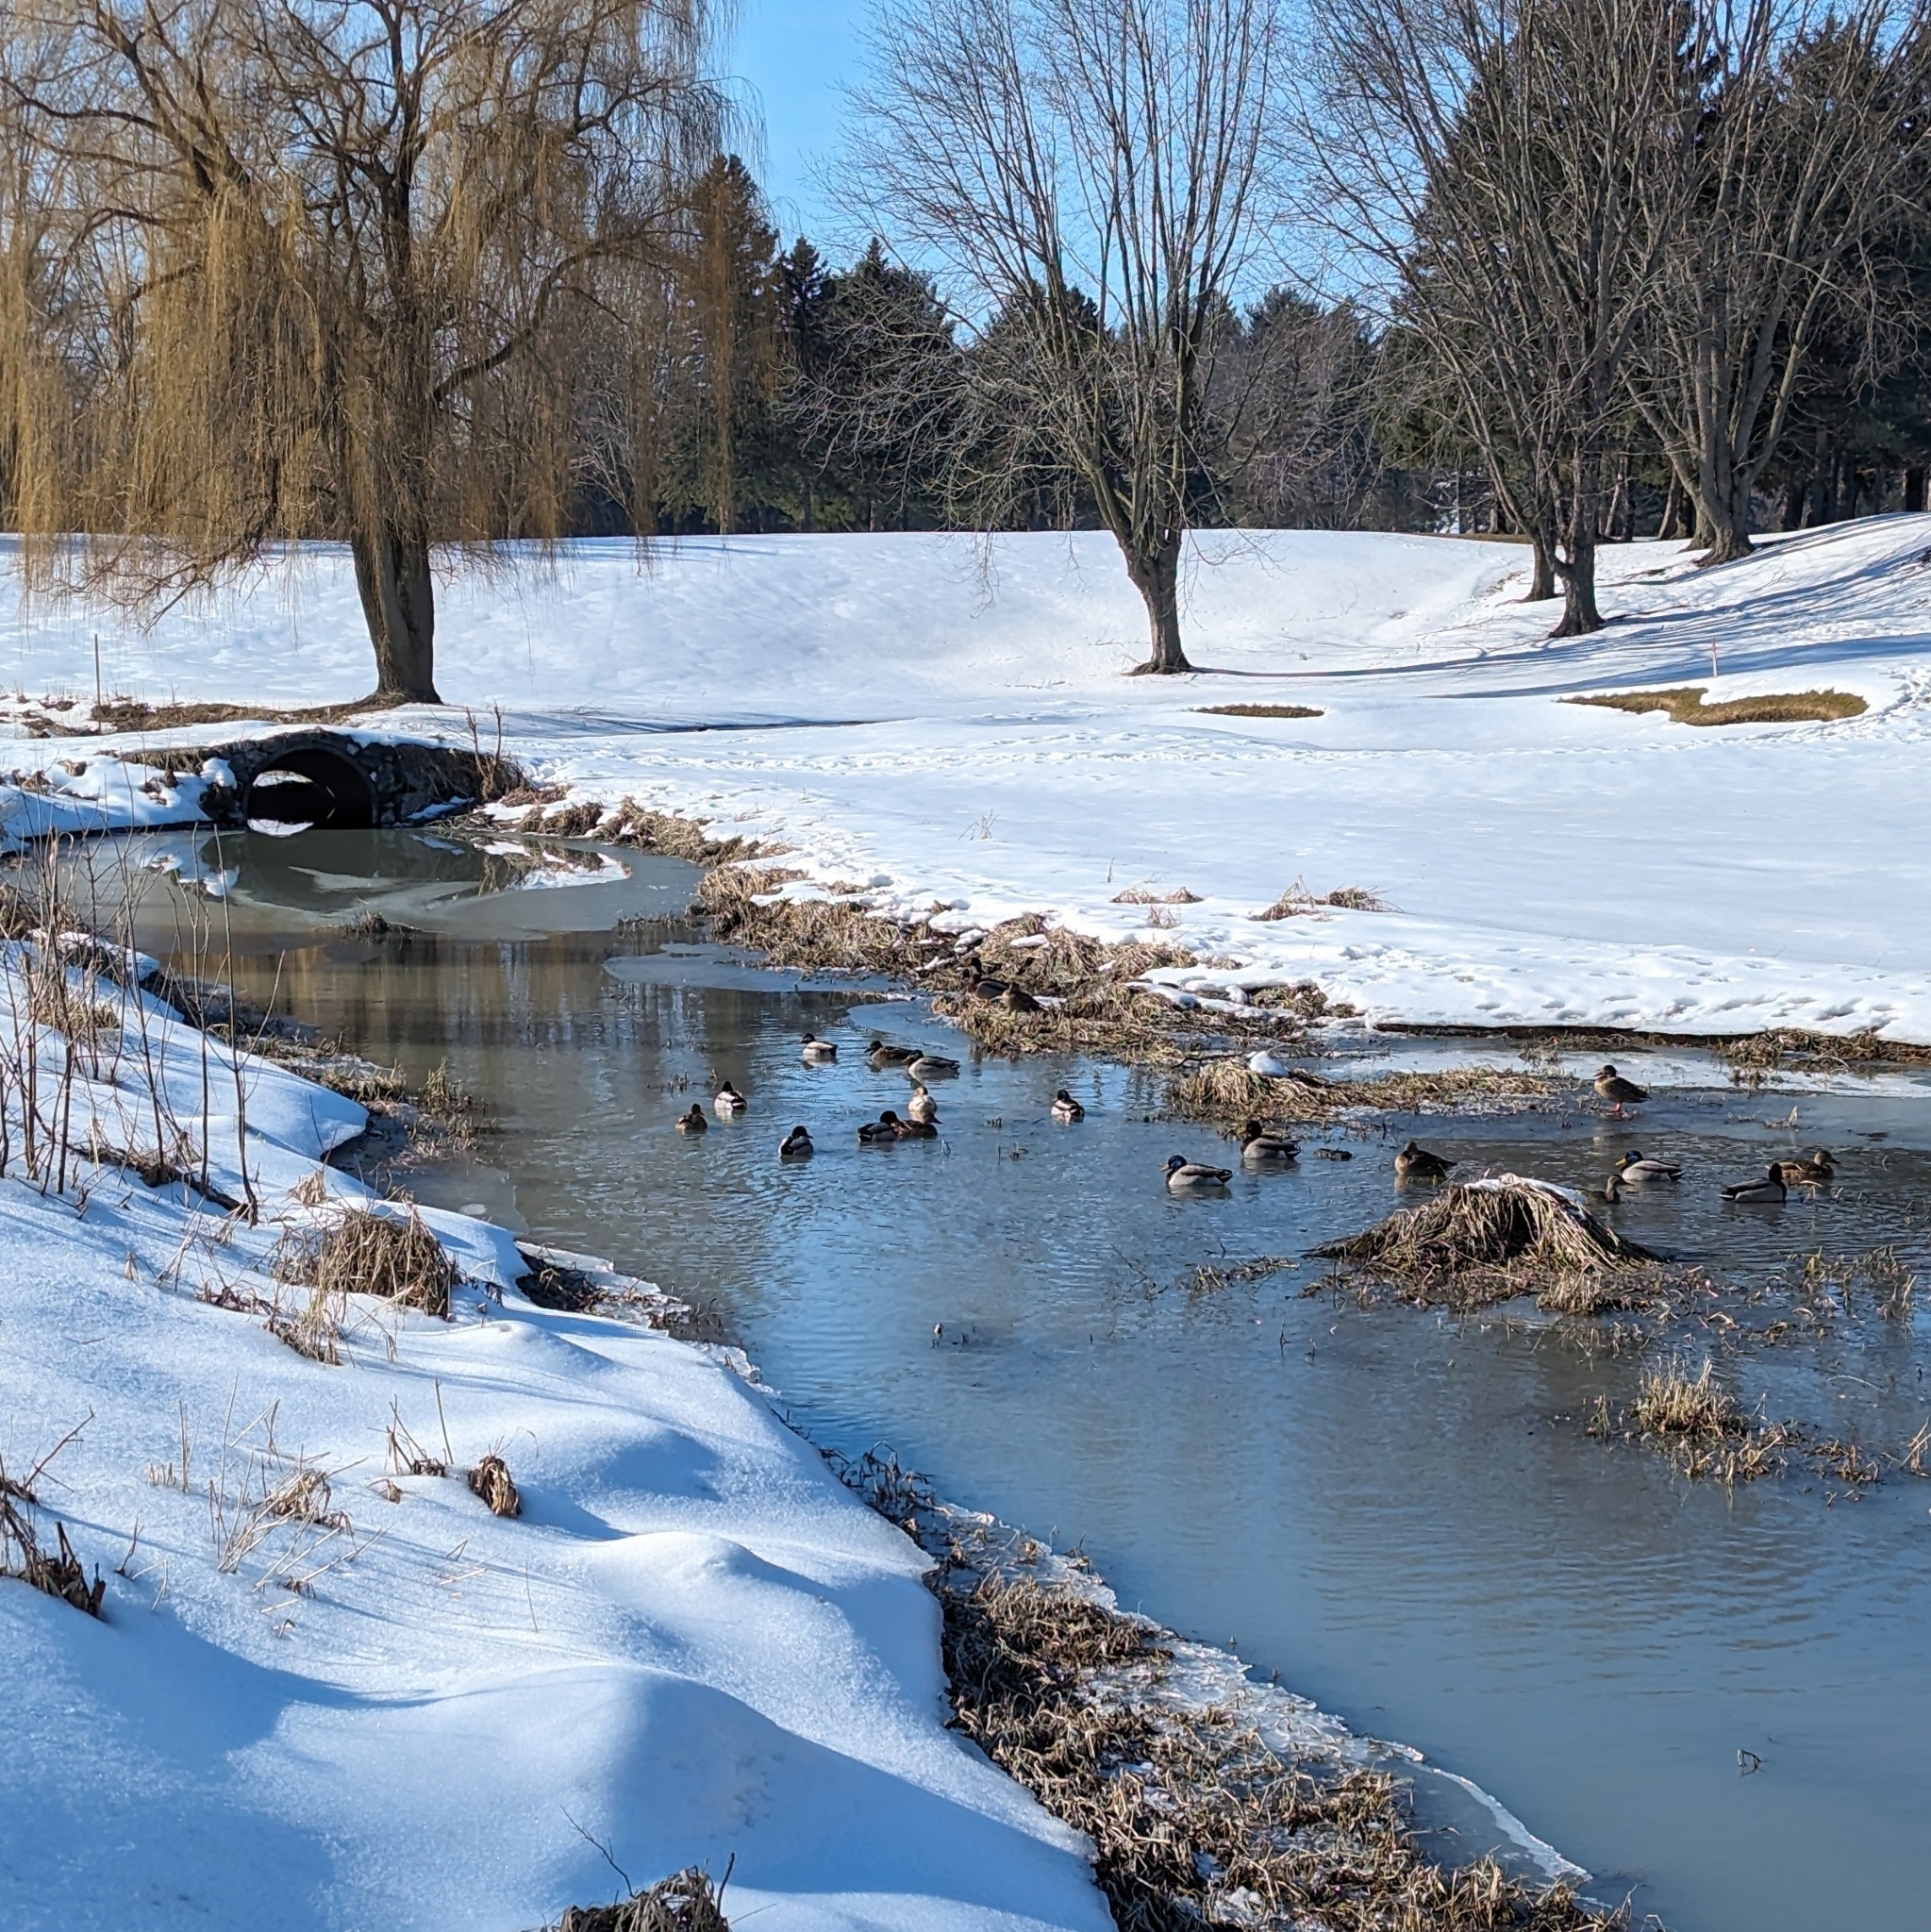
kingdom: Animalia
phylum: Chordata
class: Aves
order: Anseriformes
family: Anatidae
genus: Anas
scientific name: Anas platyrhynchos
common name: Mallard
